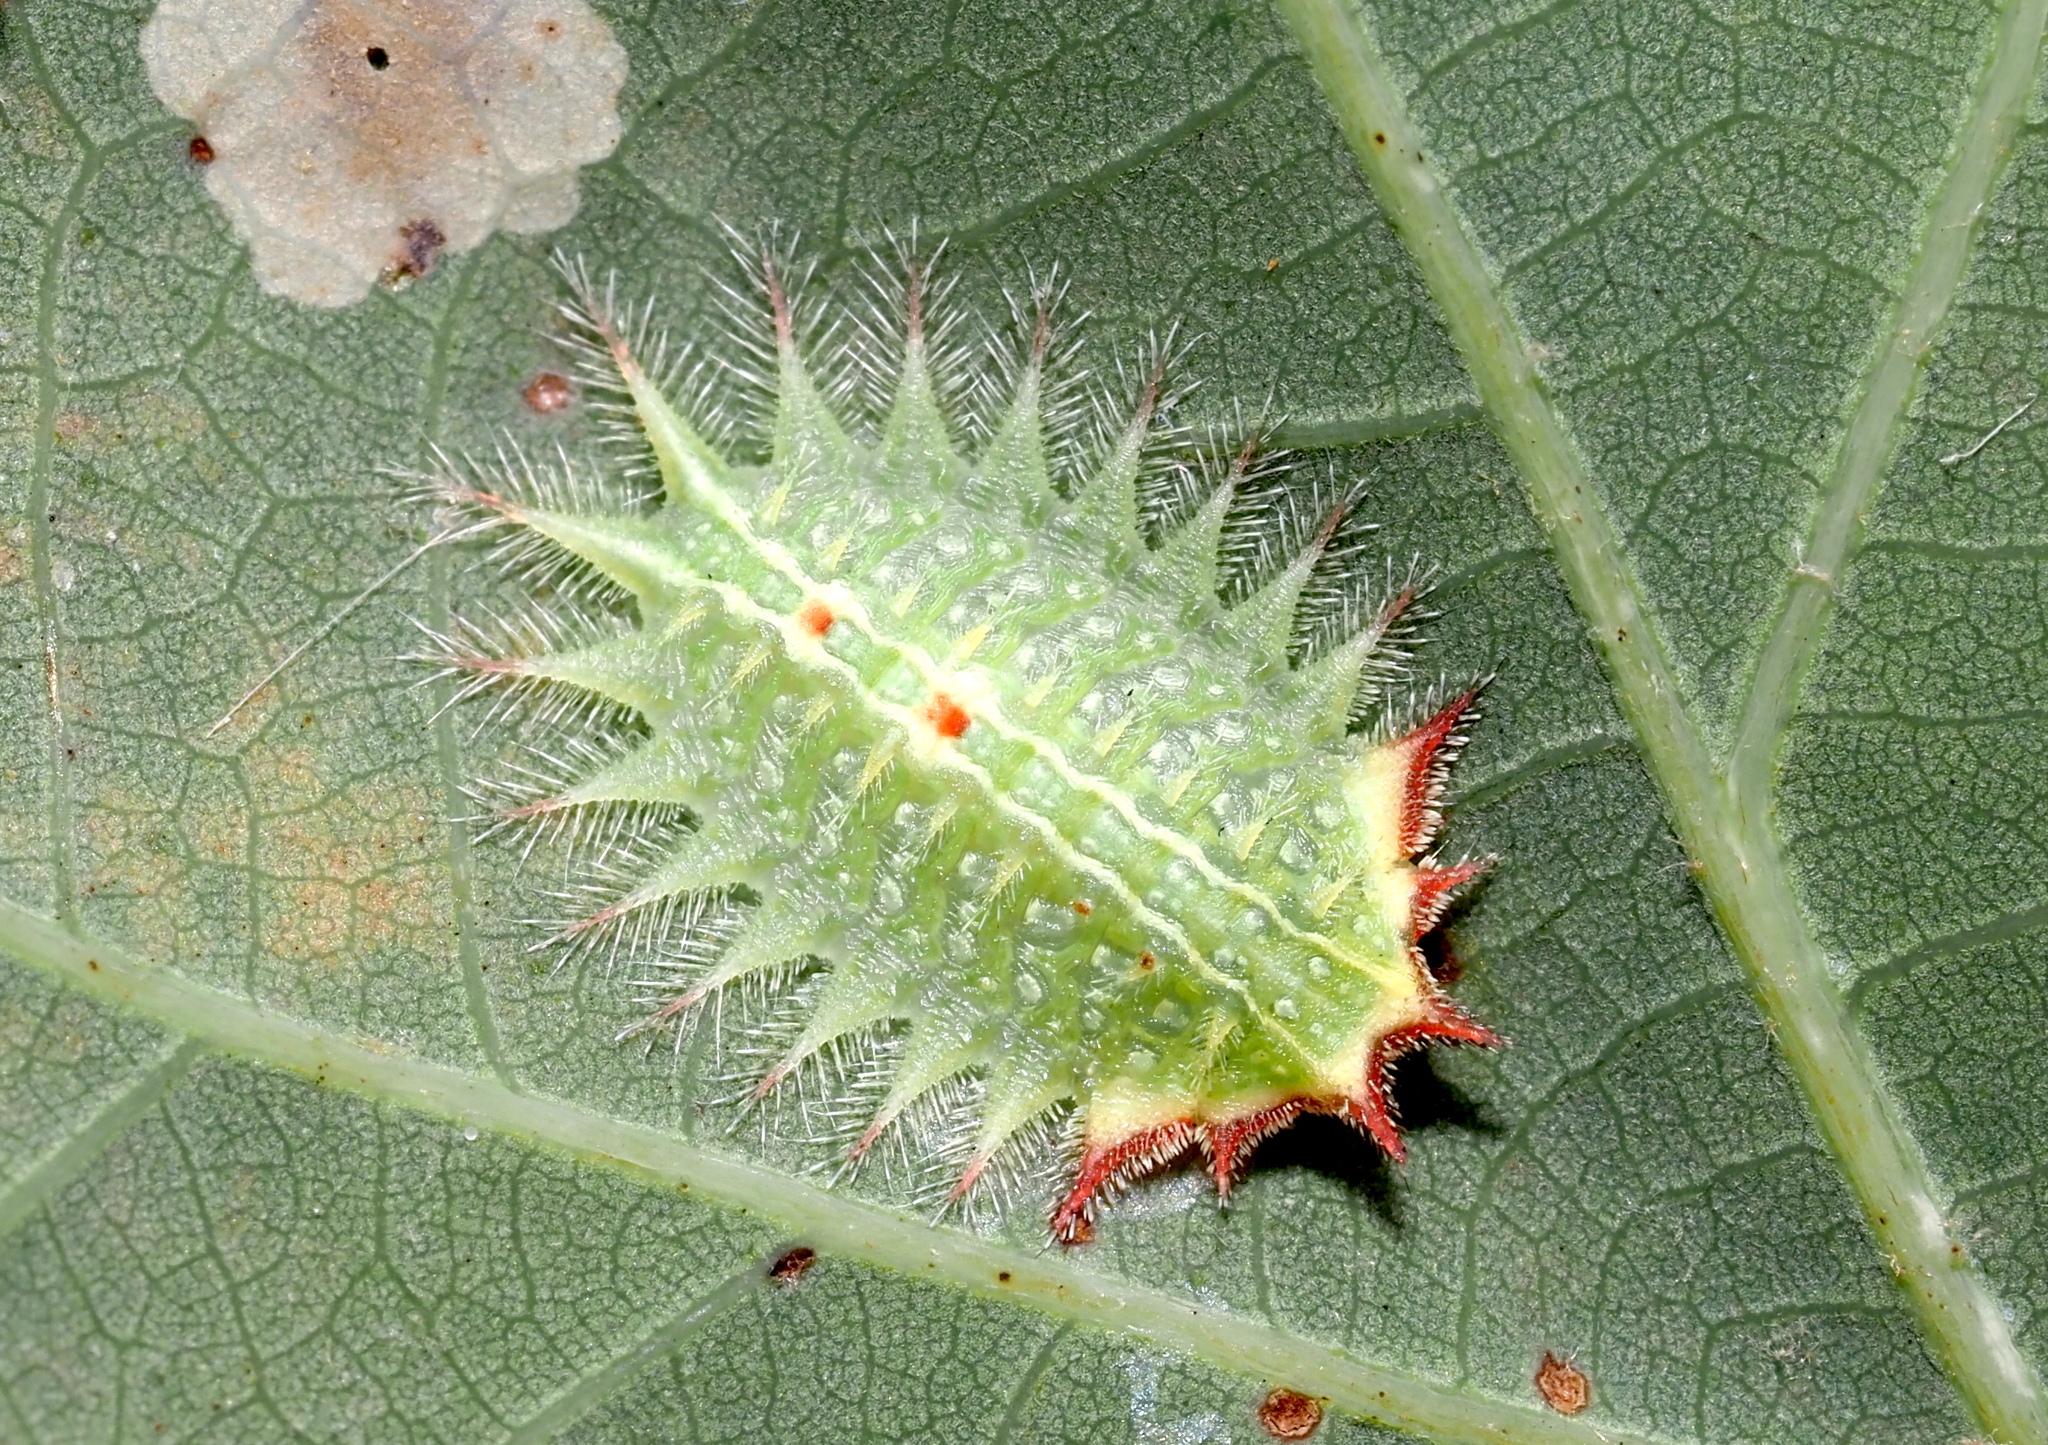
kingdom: Animalia
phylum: Arthropoda
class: Insecta
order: Lepidoptera
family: Limacodidae
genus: Isa
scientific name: Isa textula
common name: Crowned slug moth
